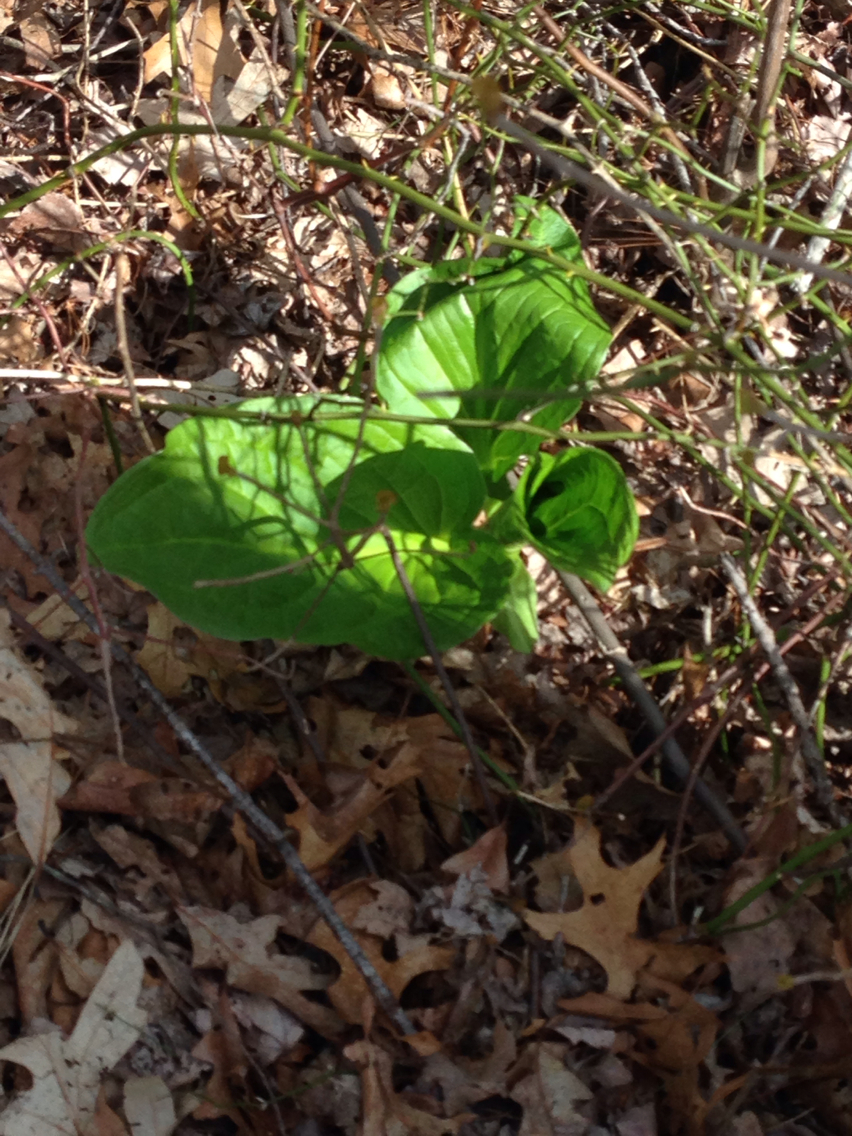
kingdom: Plantae
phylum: Tracheophyta
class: Liliopsida
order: Liliales
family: Smilacaceae
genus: Smilax
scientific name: Smilax rotundifolia
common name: Bullbriar
